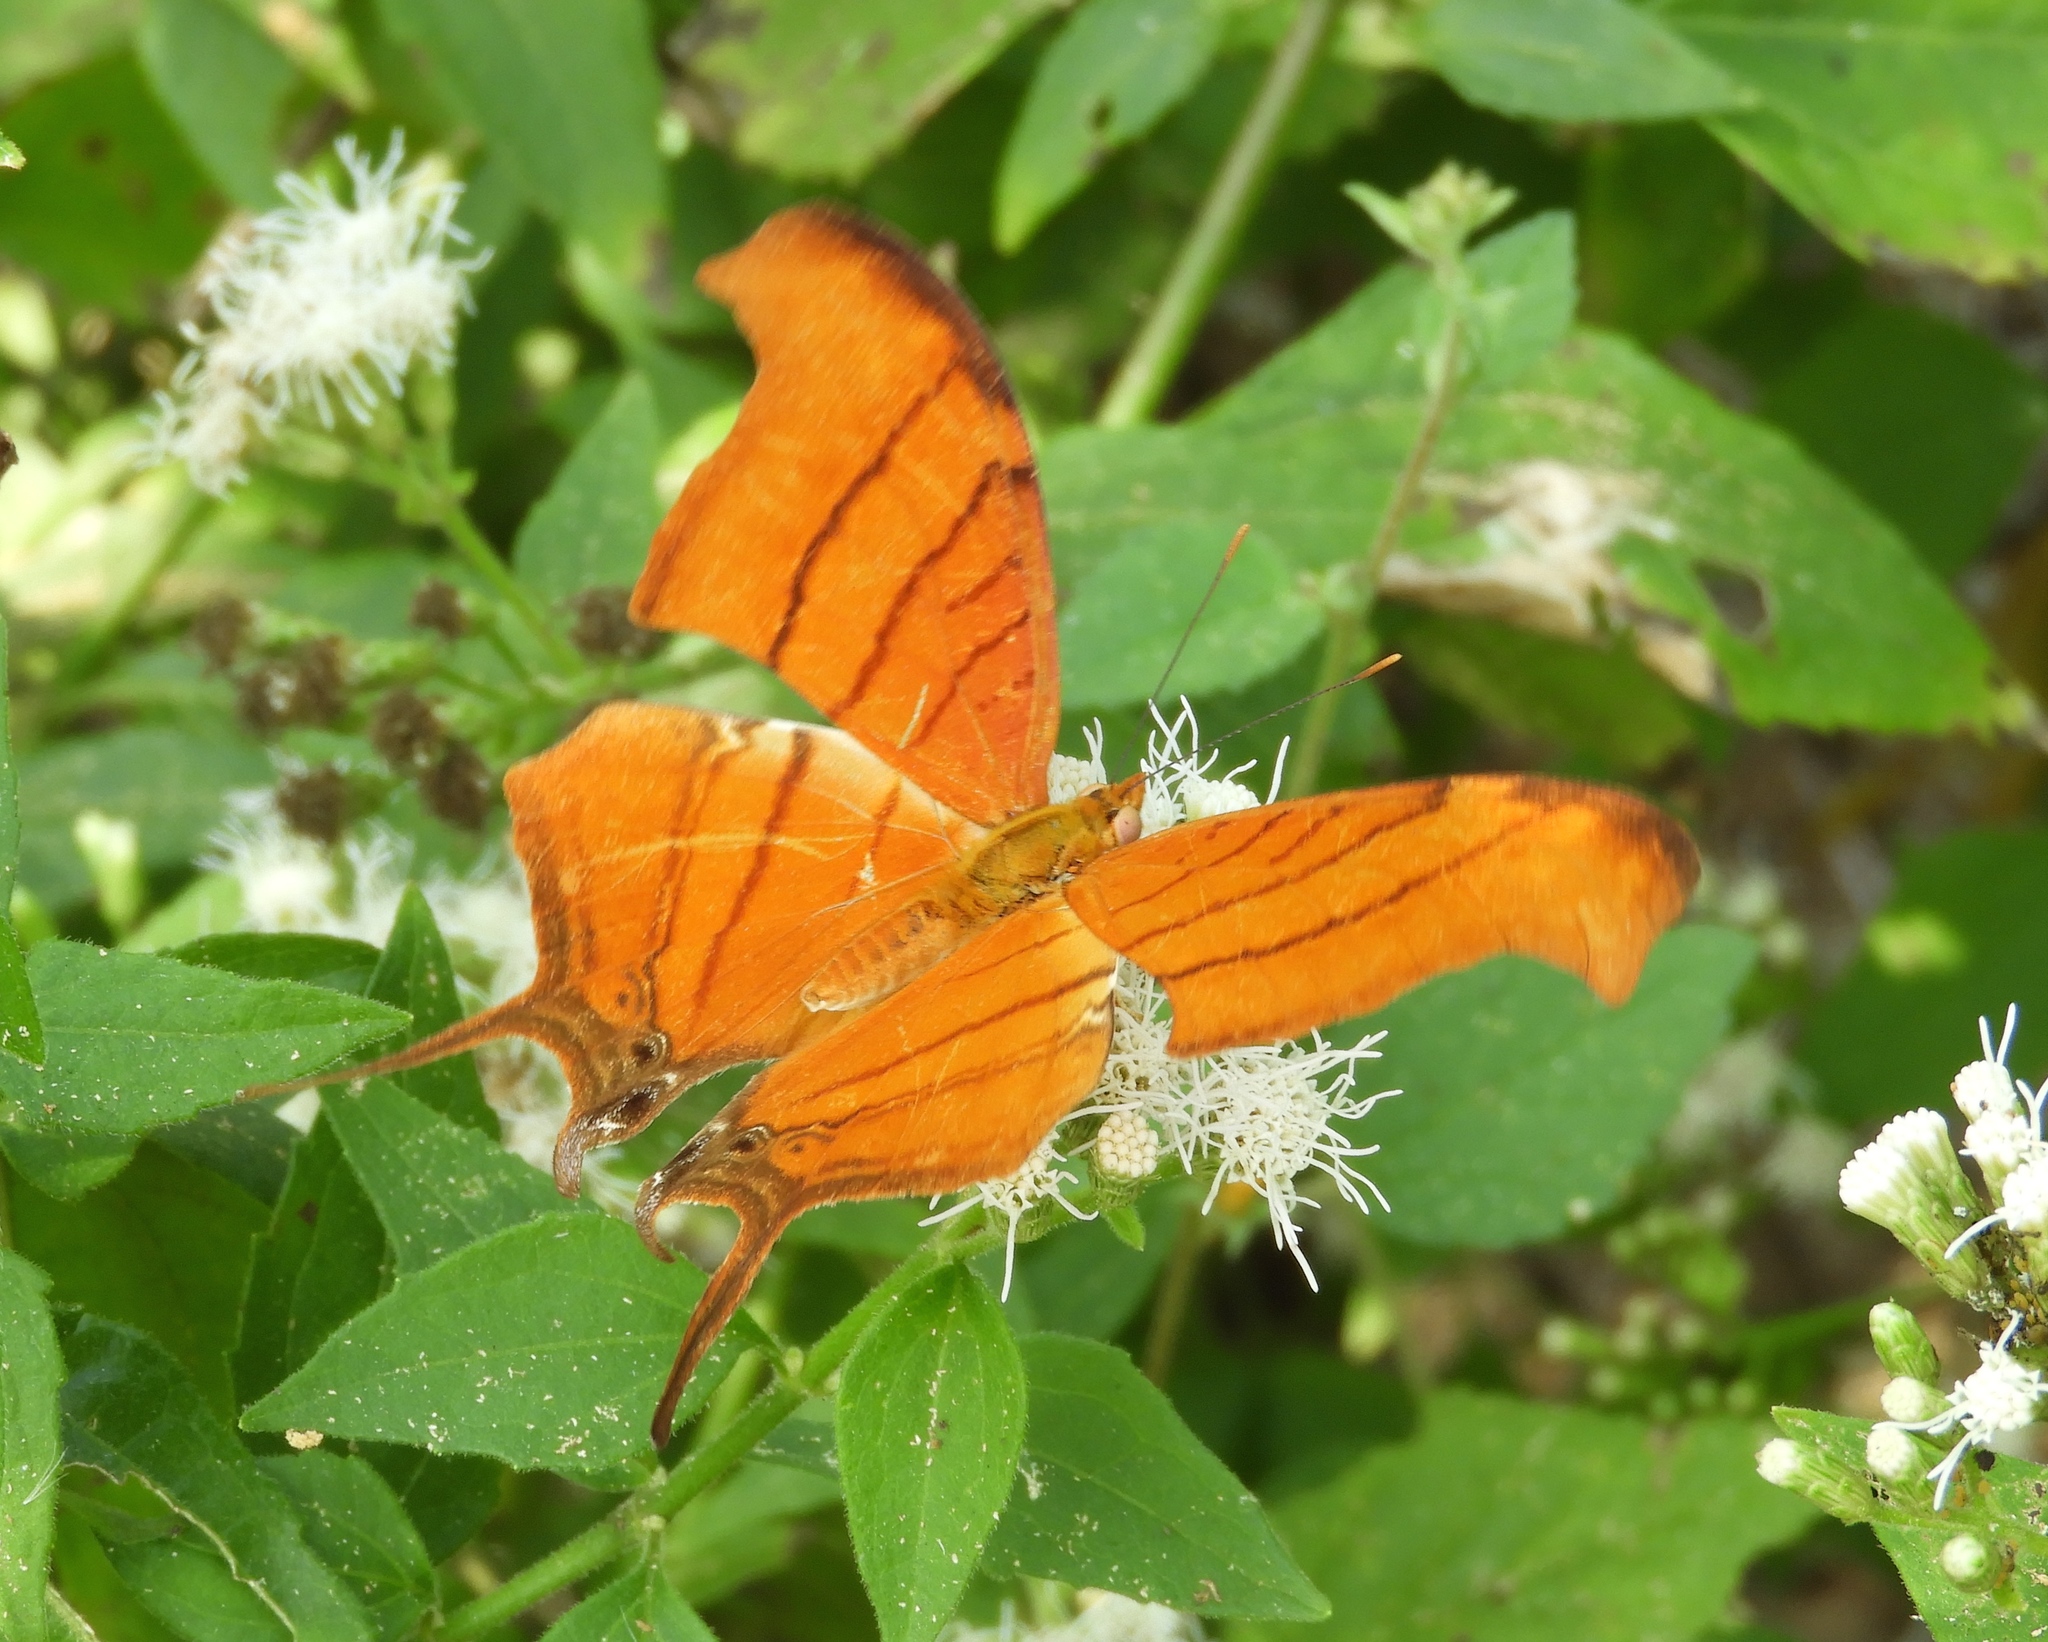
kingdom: Animalia
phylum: Arthropoda
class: Insecta
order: Lepidoptera
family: Nymphalidae
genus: Marpesia
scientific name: Marpesia petreus
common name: Red dagger wing
